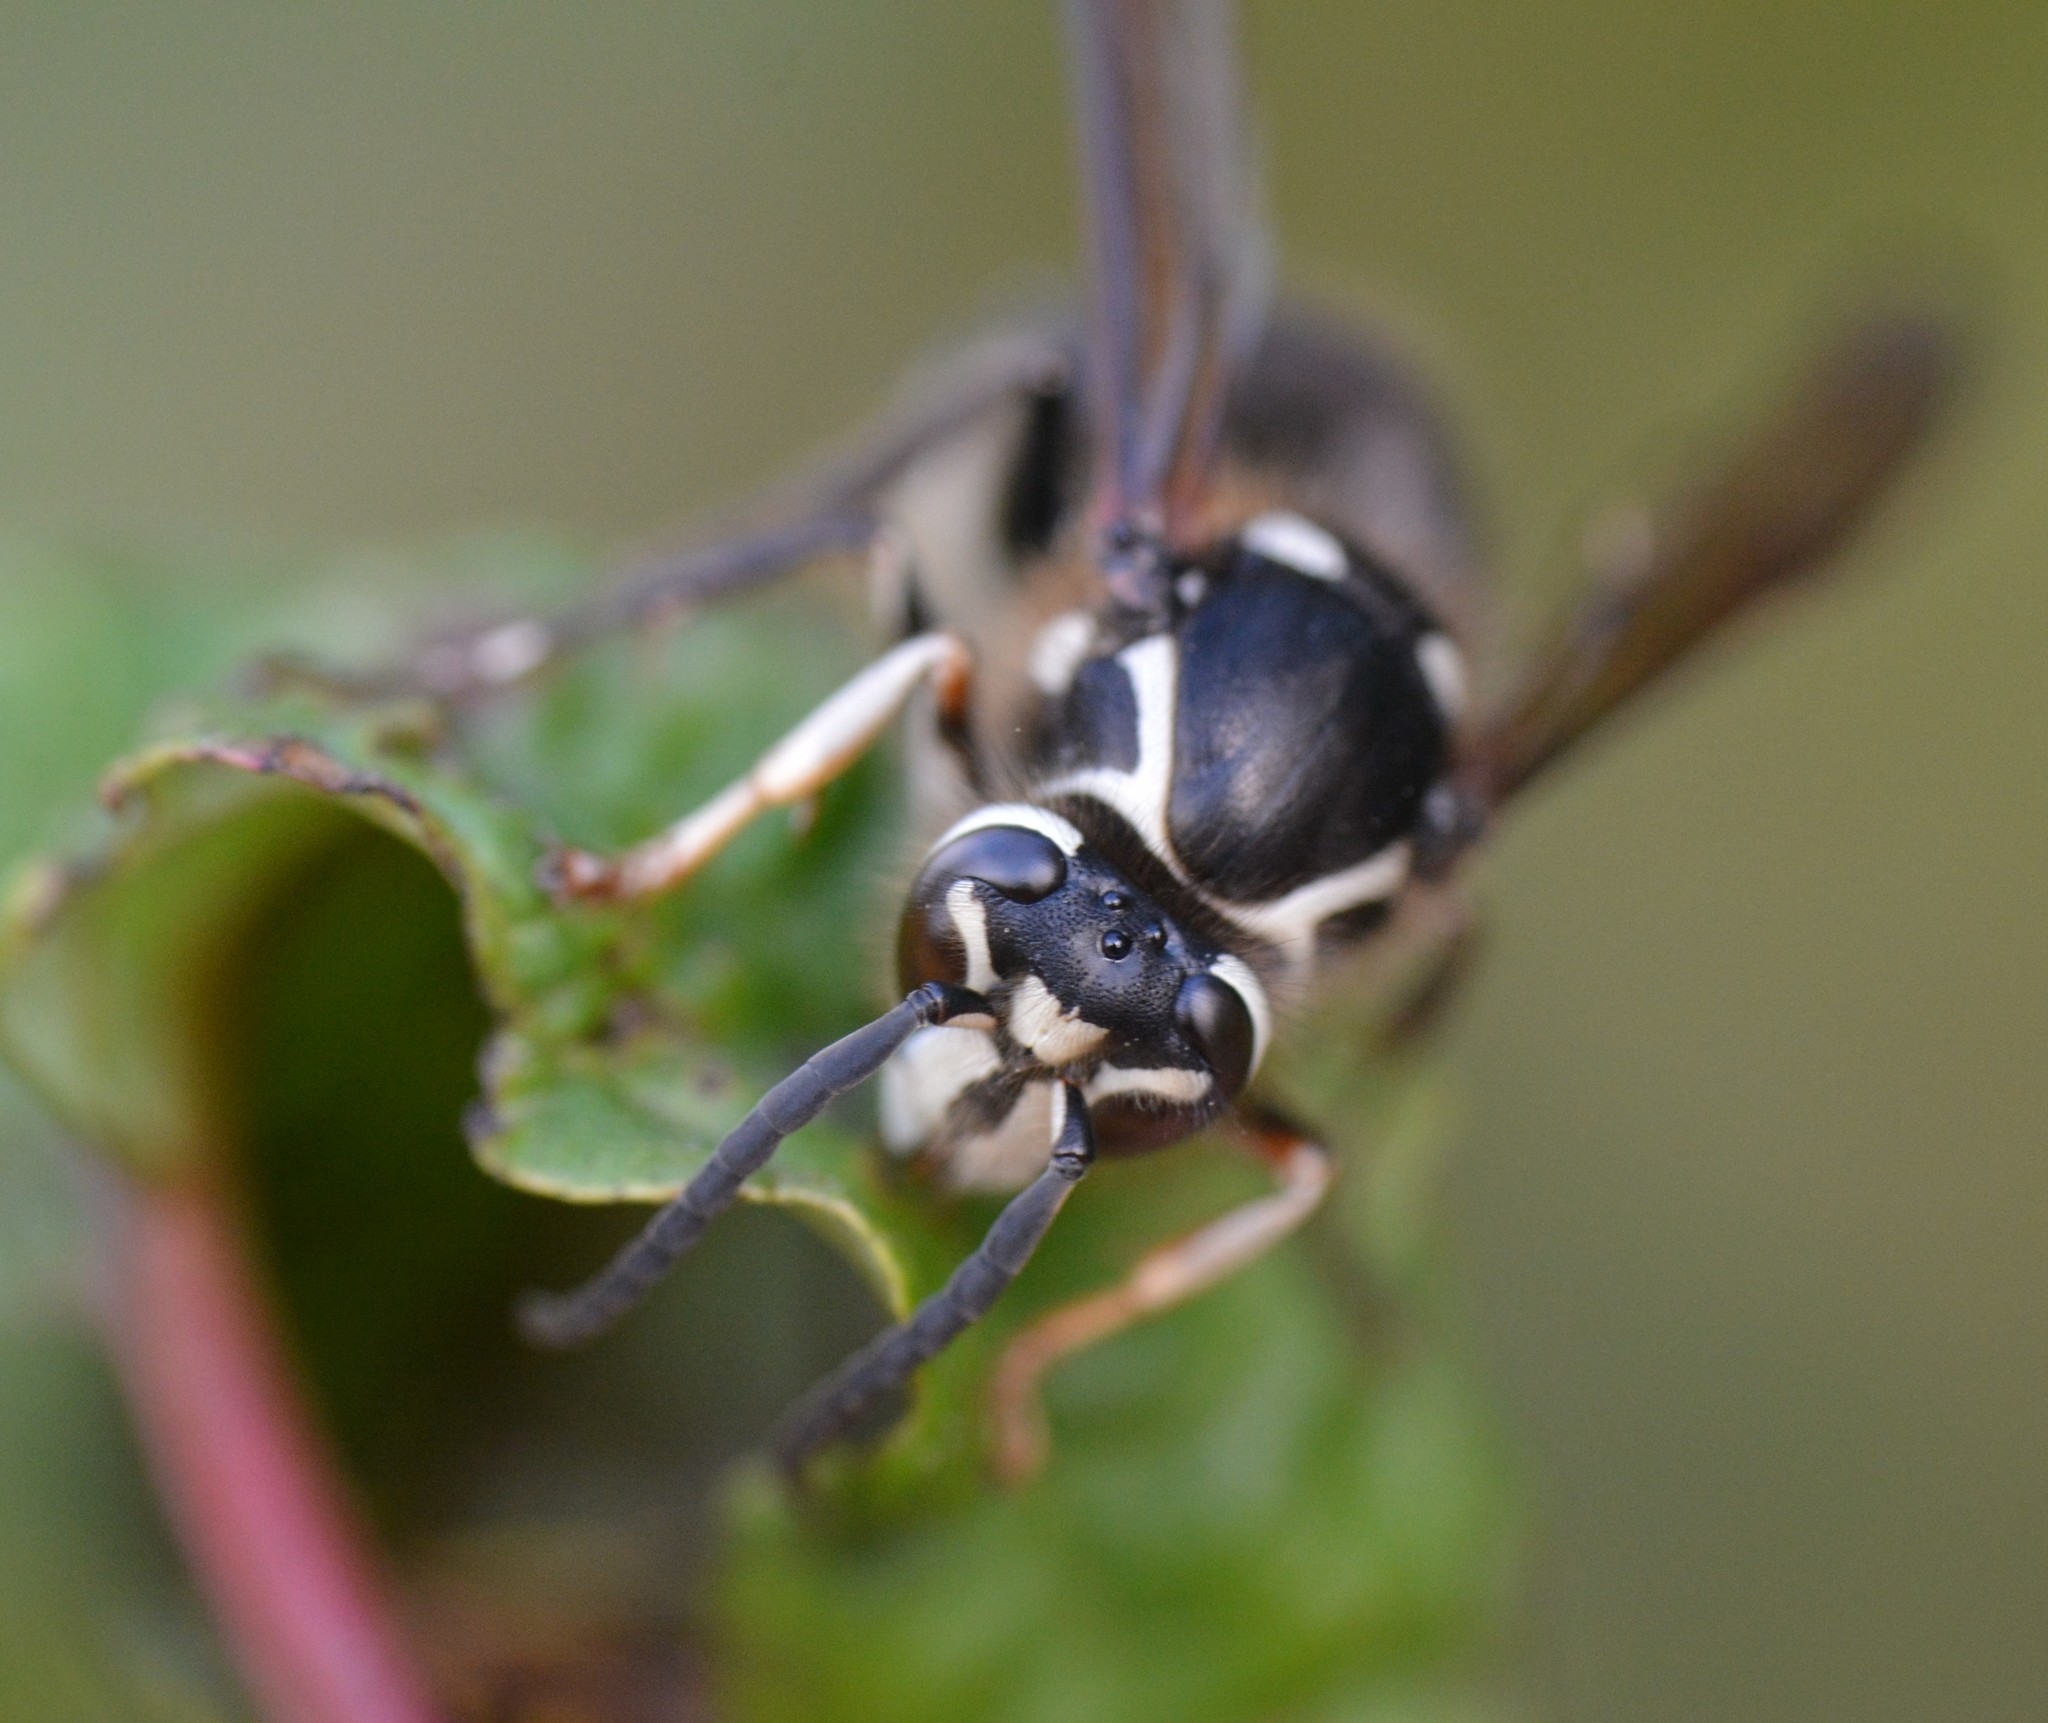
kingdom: Animalia
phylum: Arthropoda
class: Insecta
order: Hymenoptera
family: Vespidae
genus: Dolichovespula
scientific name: Dolichovespula maculata
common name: Bald-faced hornet
